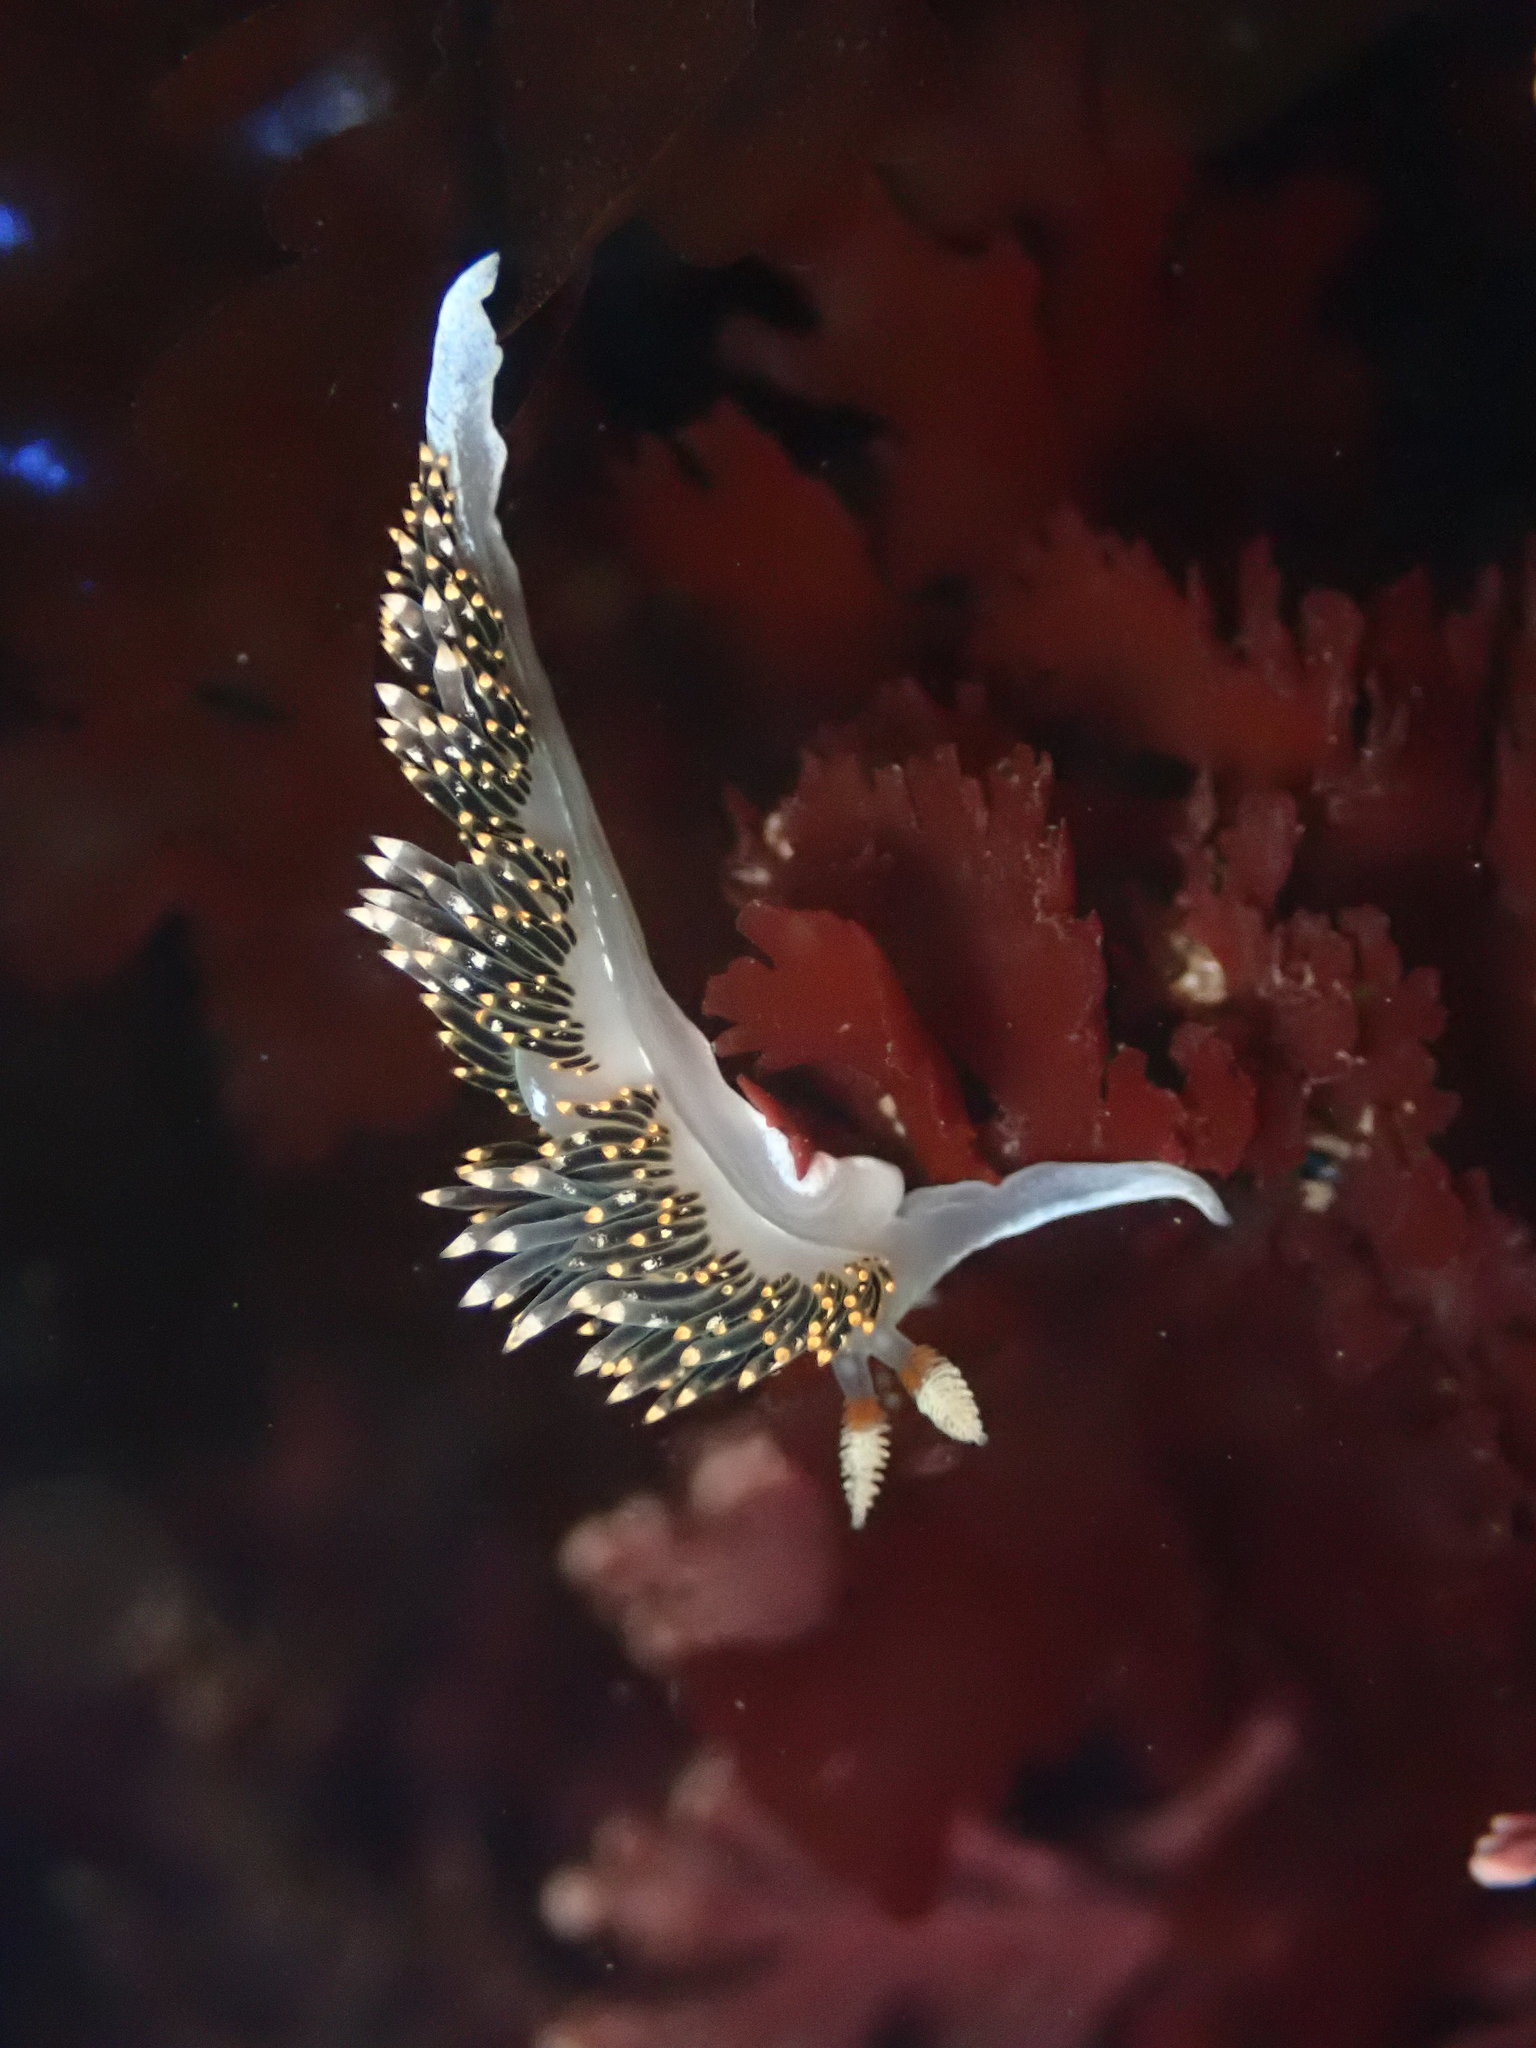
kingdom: Animalia
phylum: Mollusca
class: Gastropoda
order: Nudibranchia
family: Facelinidae
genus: Phidiana
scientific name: Phidiana hiltoni
